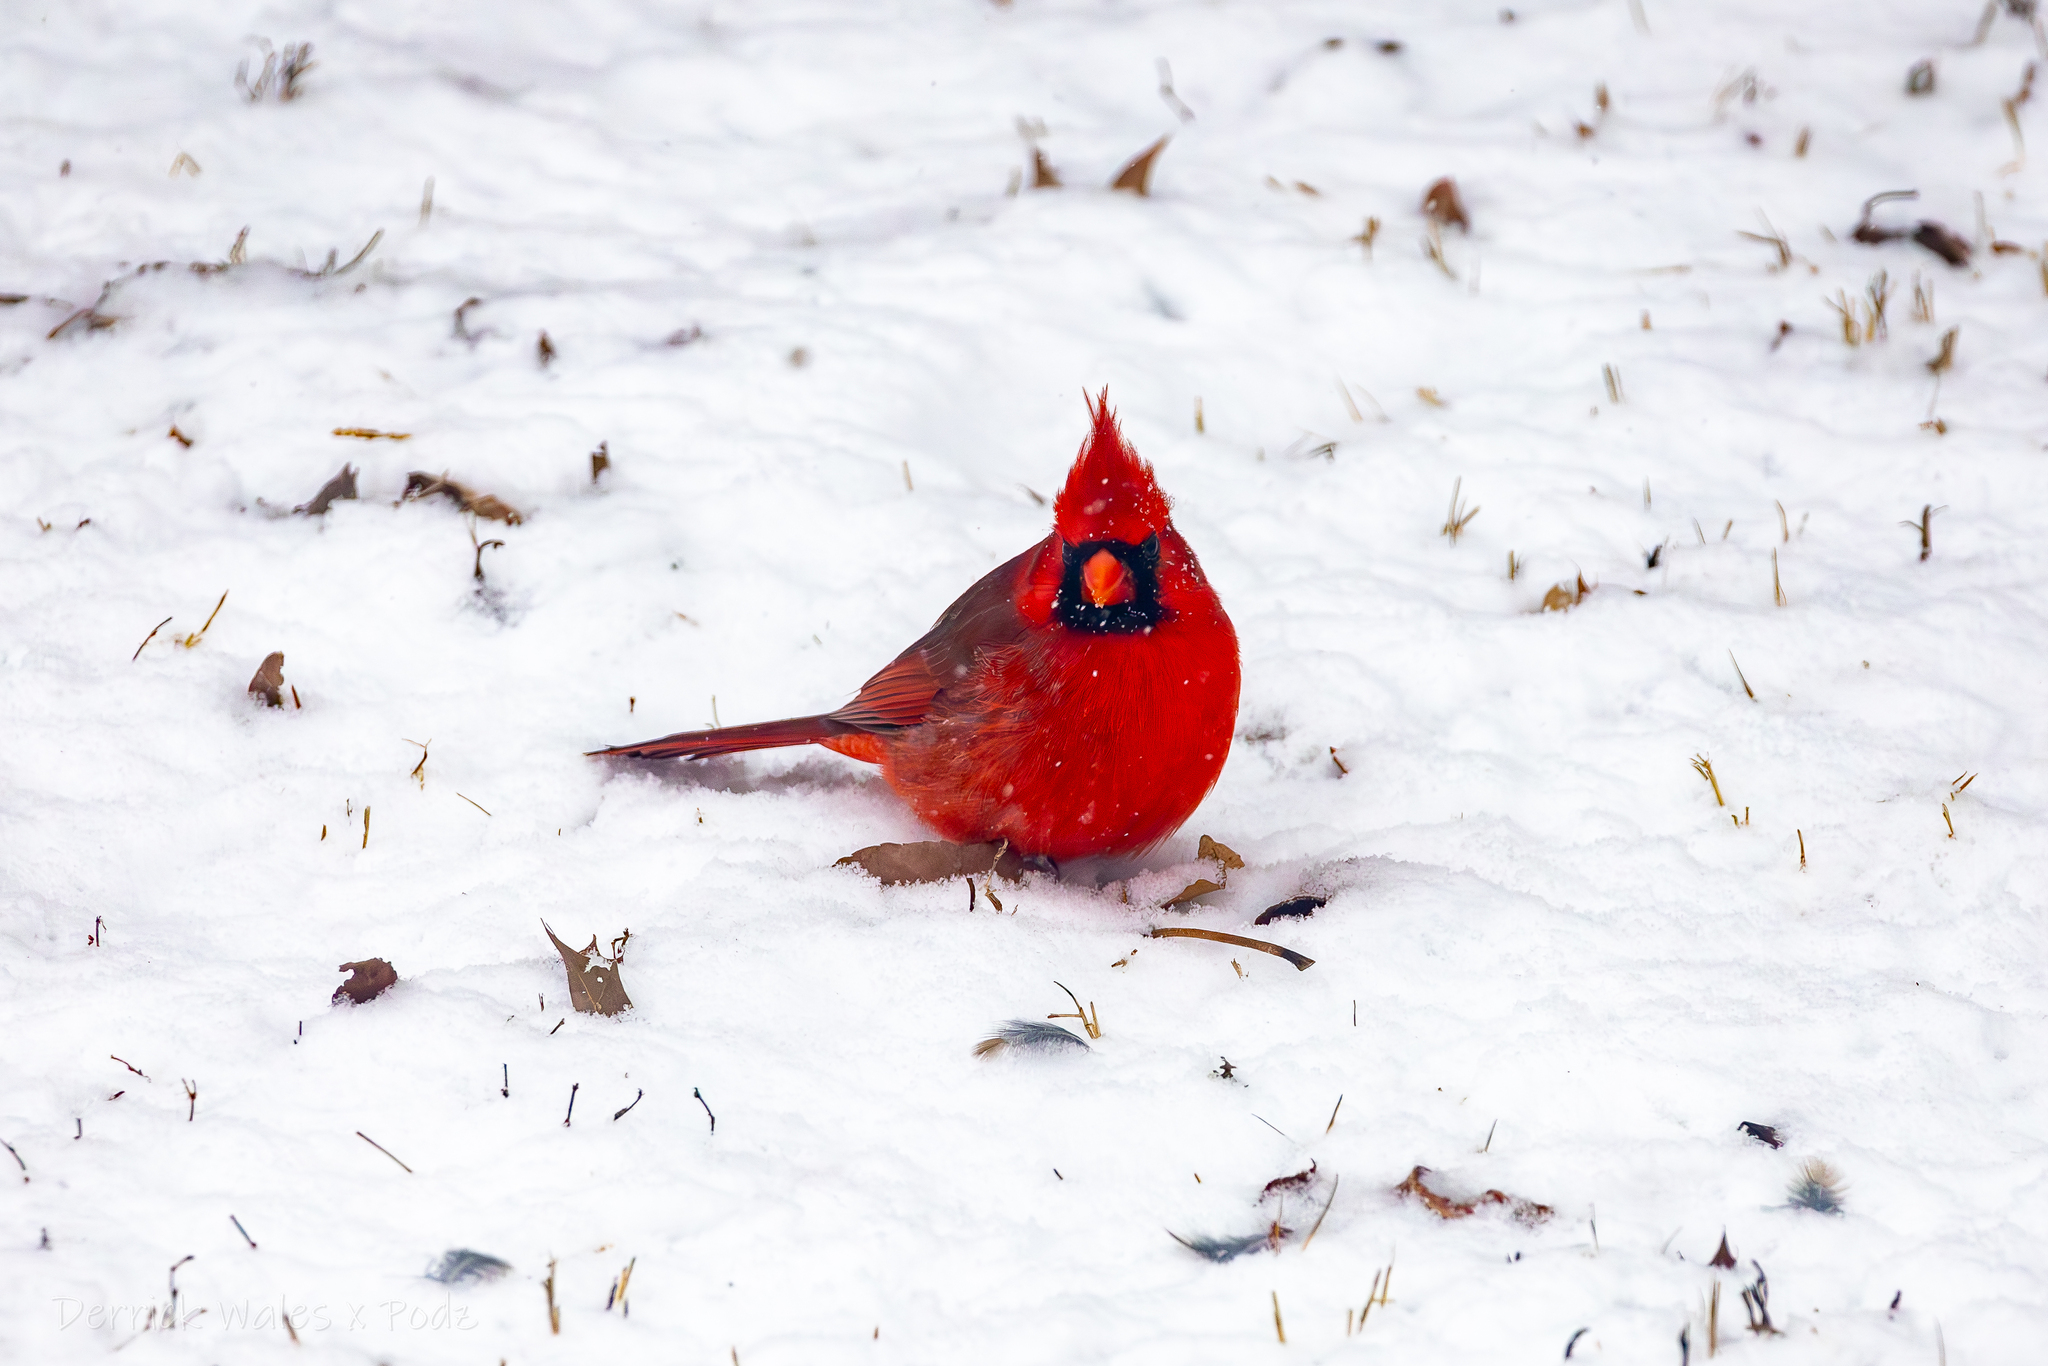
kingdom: Animalia
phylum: Chordata
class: Aves
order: Passeriformes
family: Cardinalidae
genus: Cardinalis
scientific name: Cardinalis cardinalis
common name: Northern cardinal
